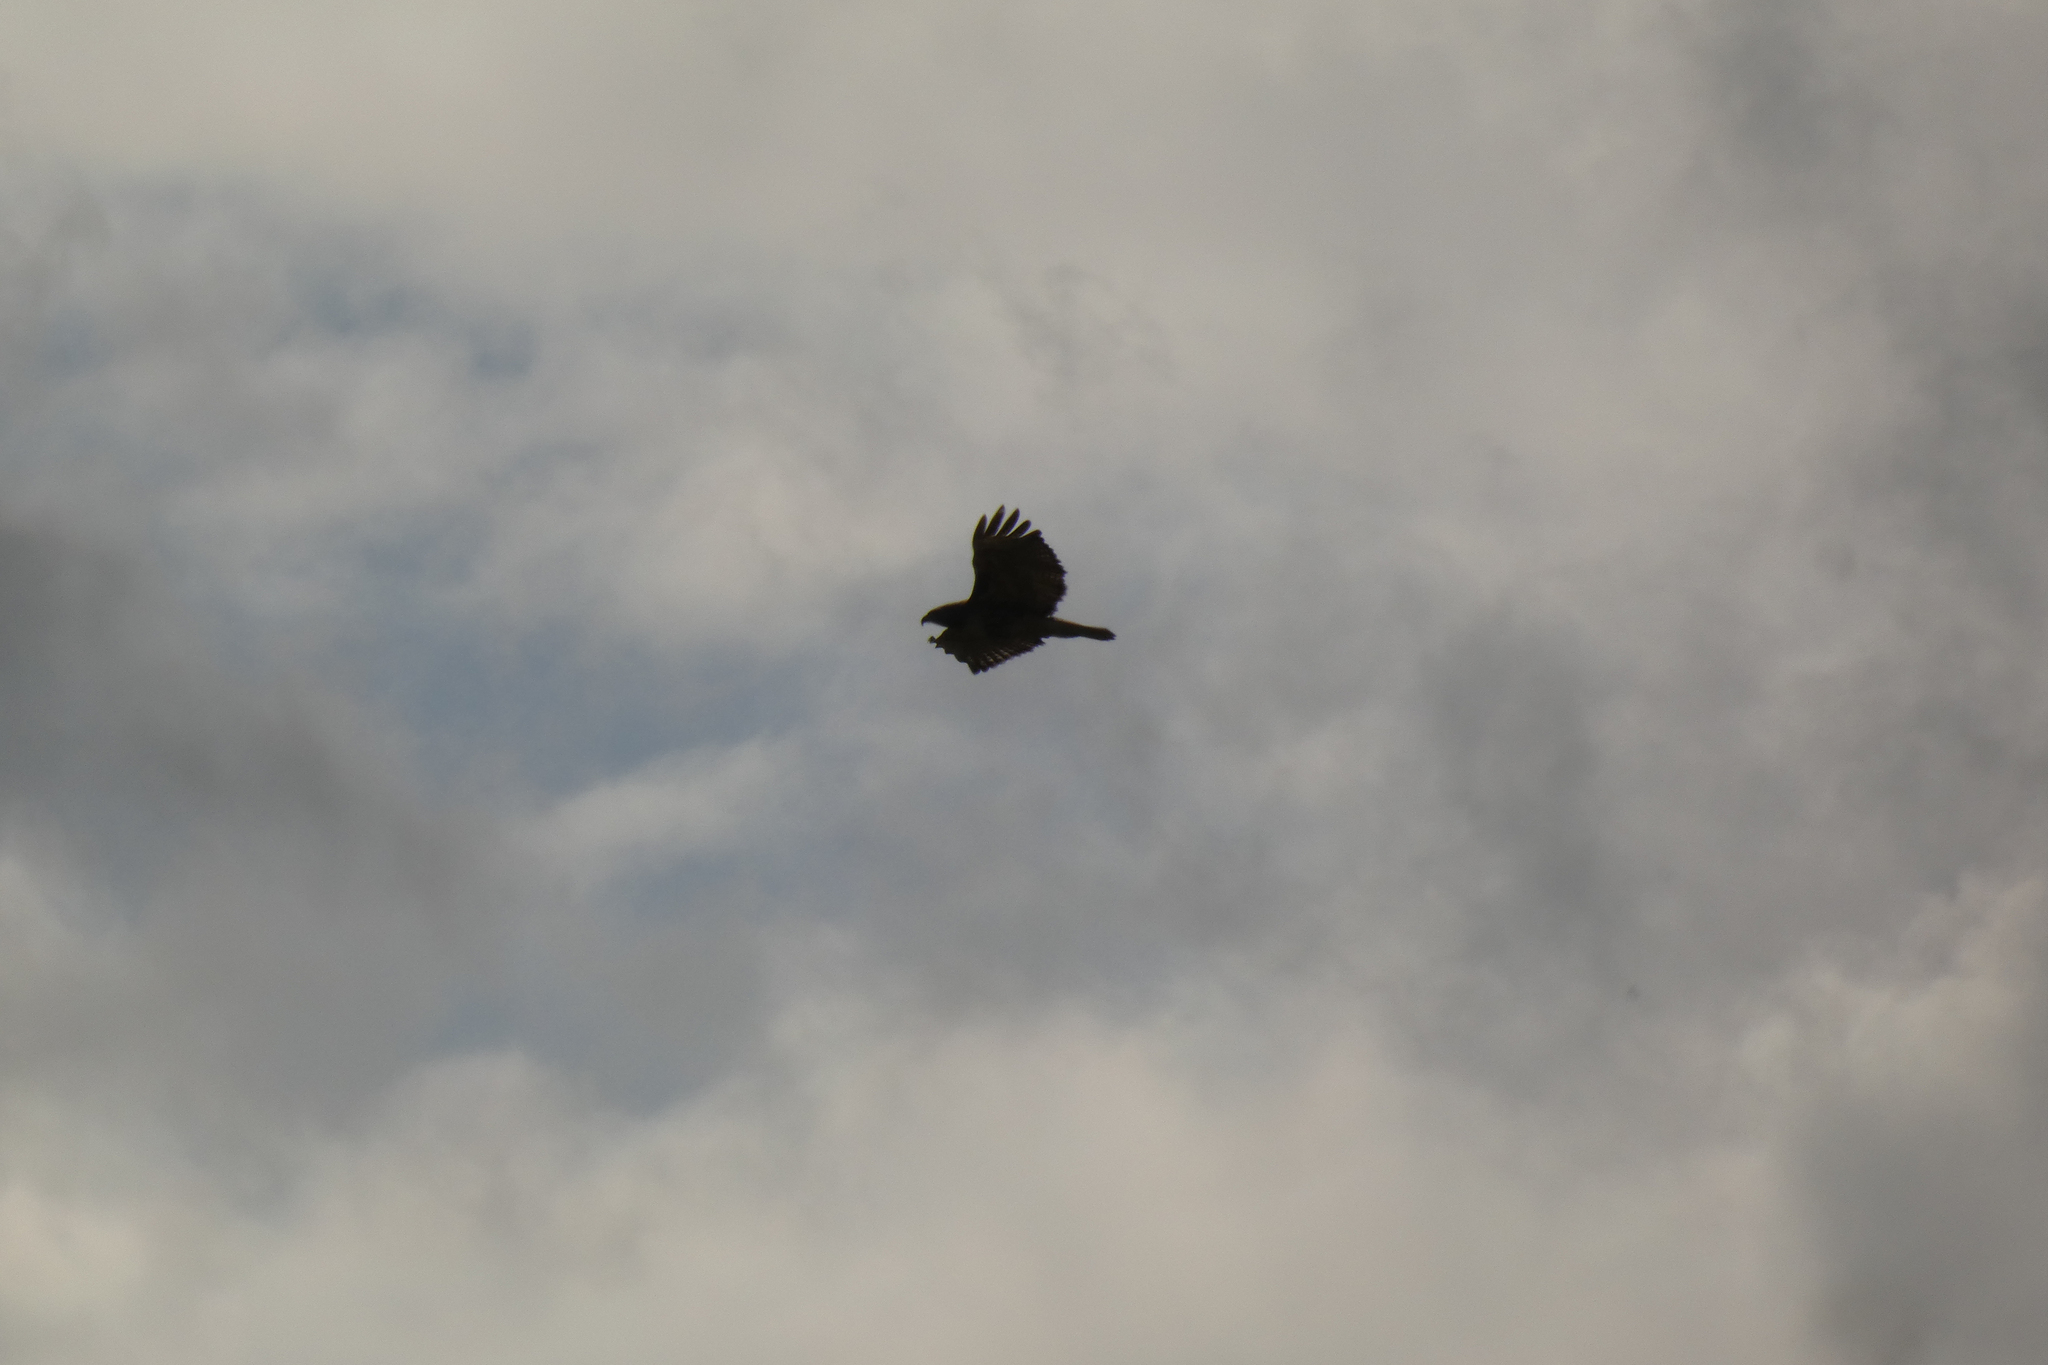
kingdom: Animalia
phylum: Chordata
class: Aves
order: Accipitriformes
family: Accipitridae
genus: Buteo
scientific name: Buteo jamaicensis
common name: Red-tailed hawk
